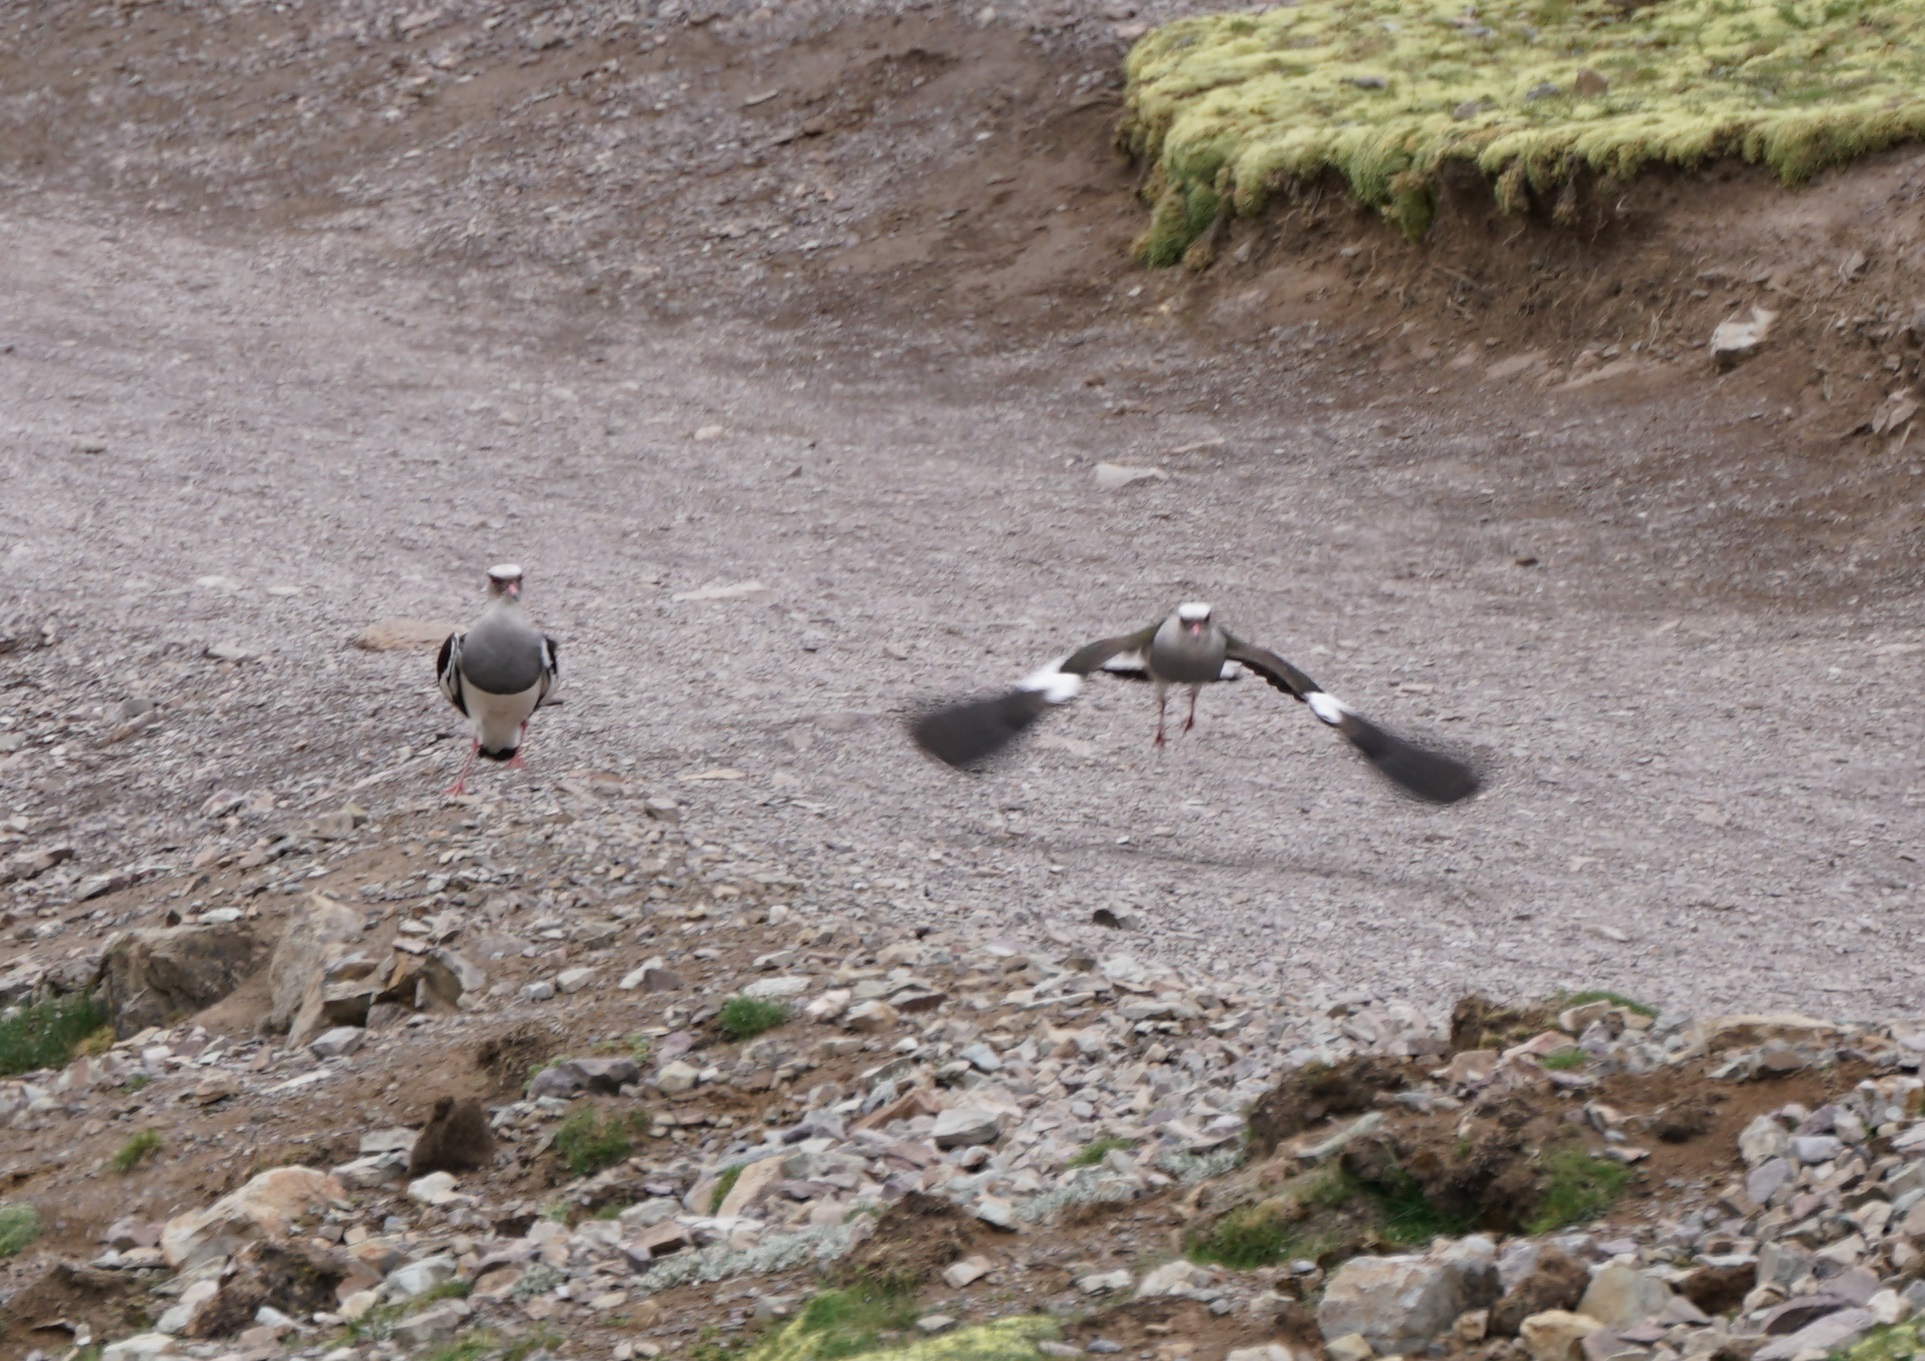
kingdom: Animalia
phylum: Chordata
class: Aves
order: Charadriiformes
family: Charadriidae
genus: Vanellus
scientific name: Vanellus resplendens
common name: Andean lapwing
